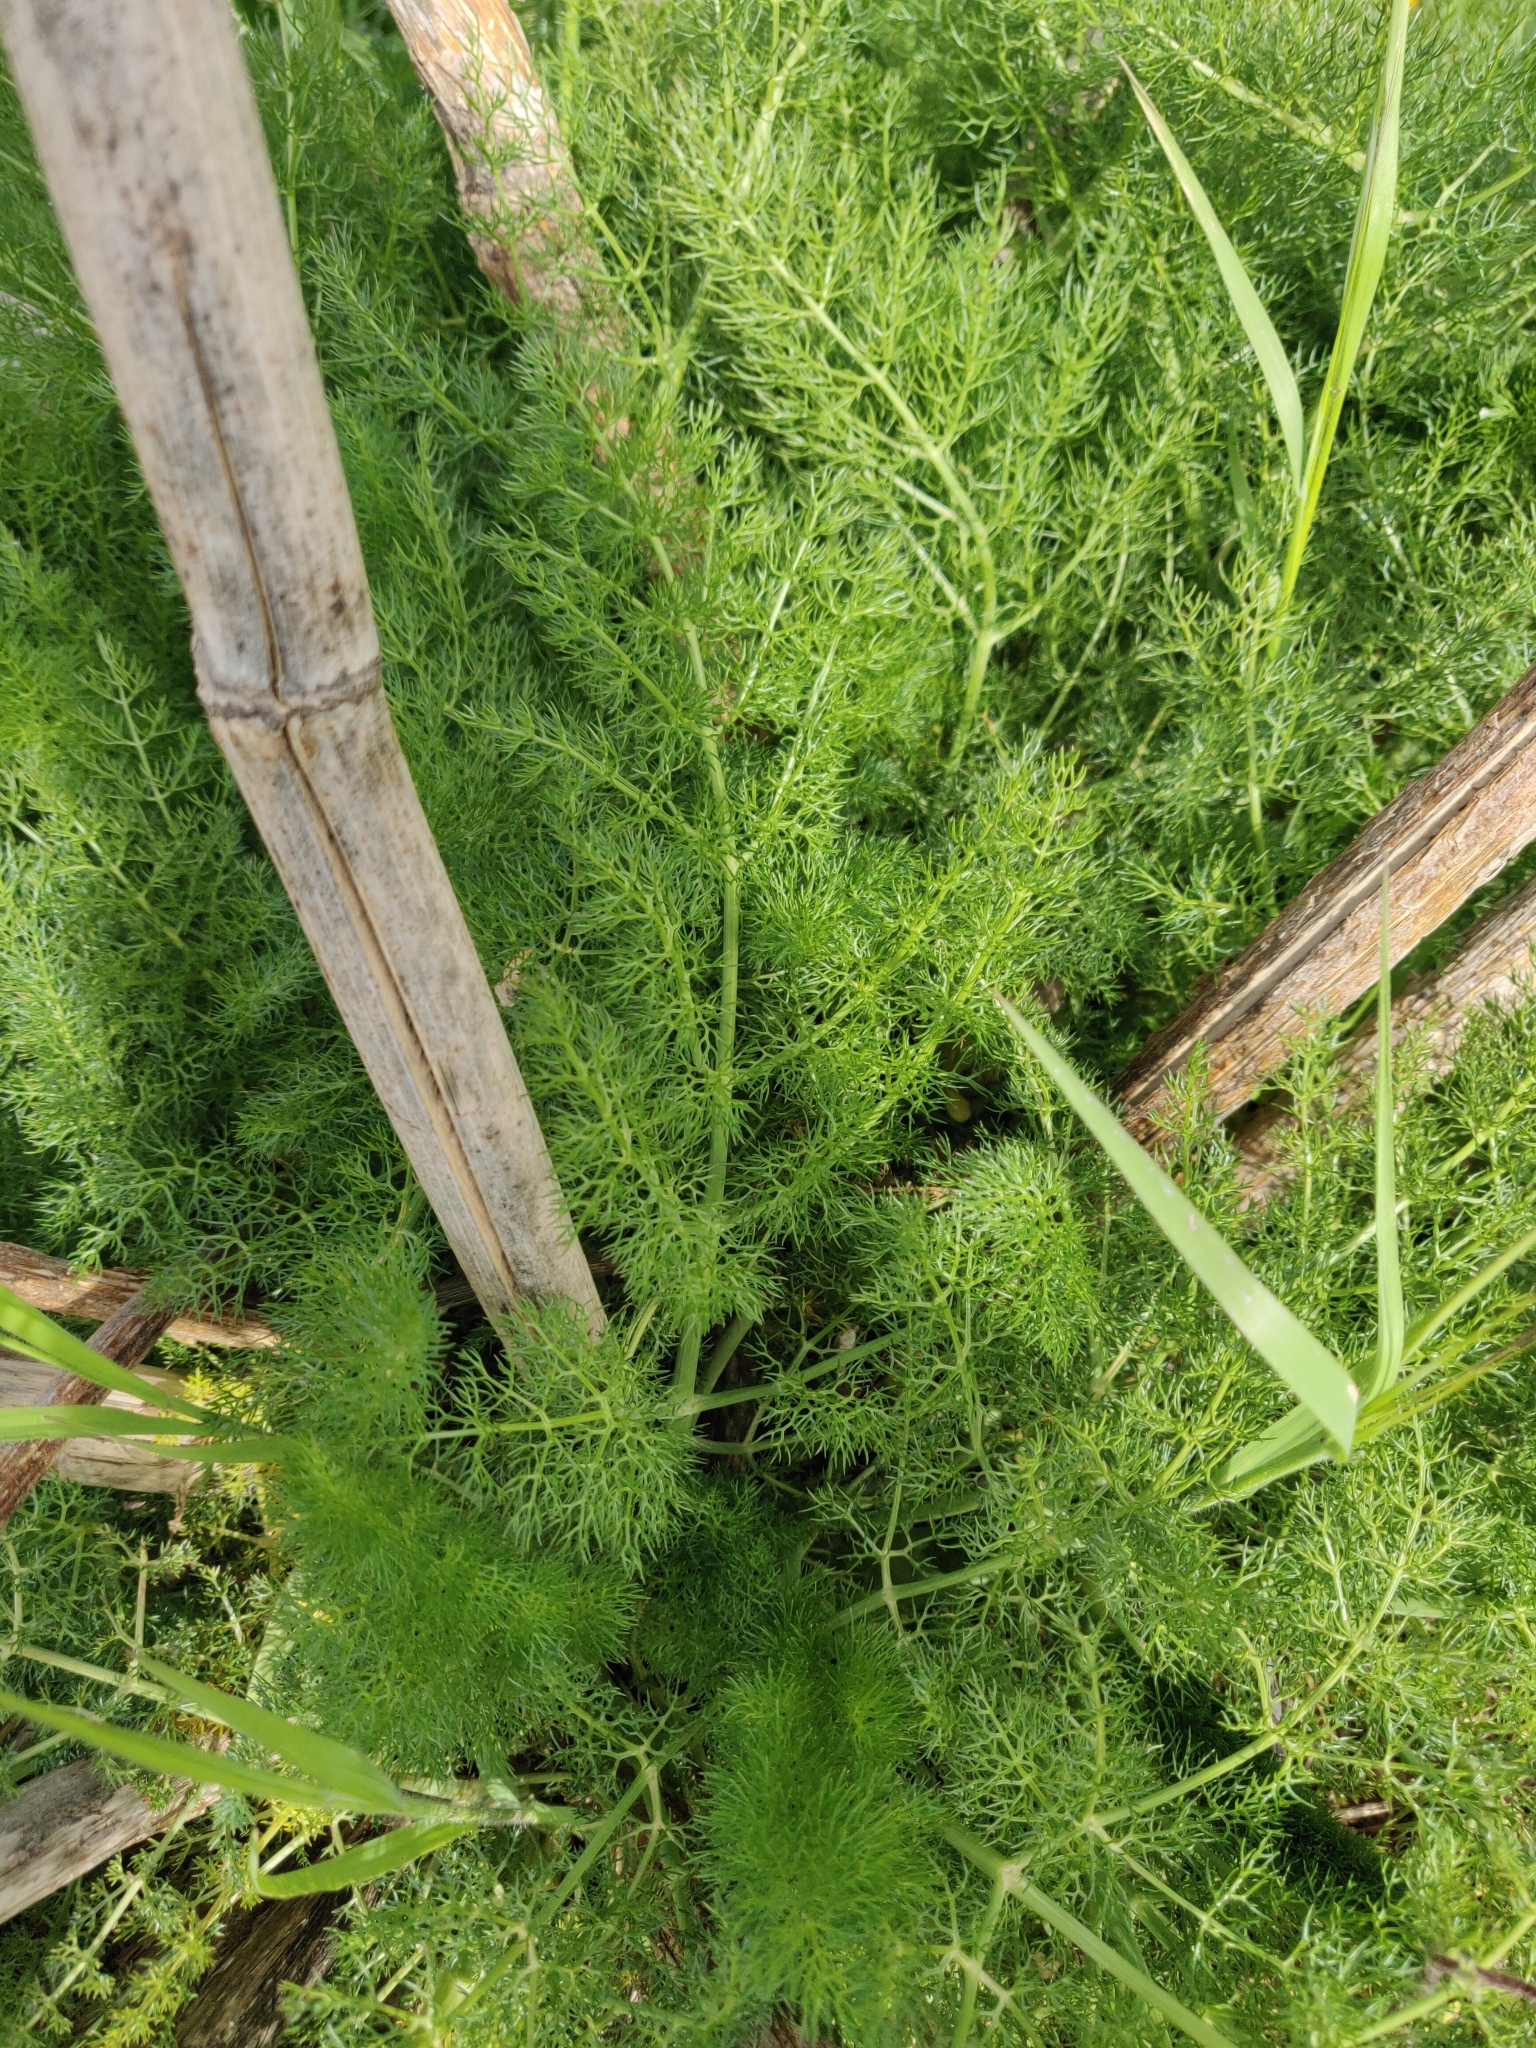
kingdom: Plantae
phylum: Tracheophyta
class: Magnoliopsida
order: Apiales
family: Apiaceae
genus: Foeniculum
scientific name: Foeniculum vulgare
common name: Fennel
